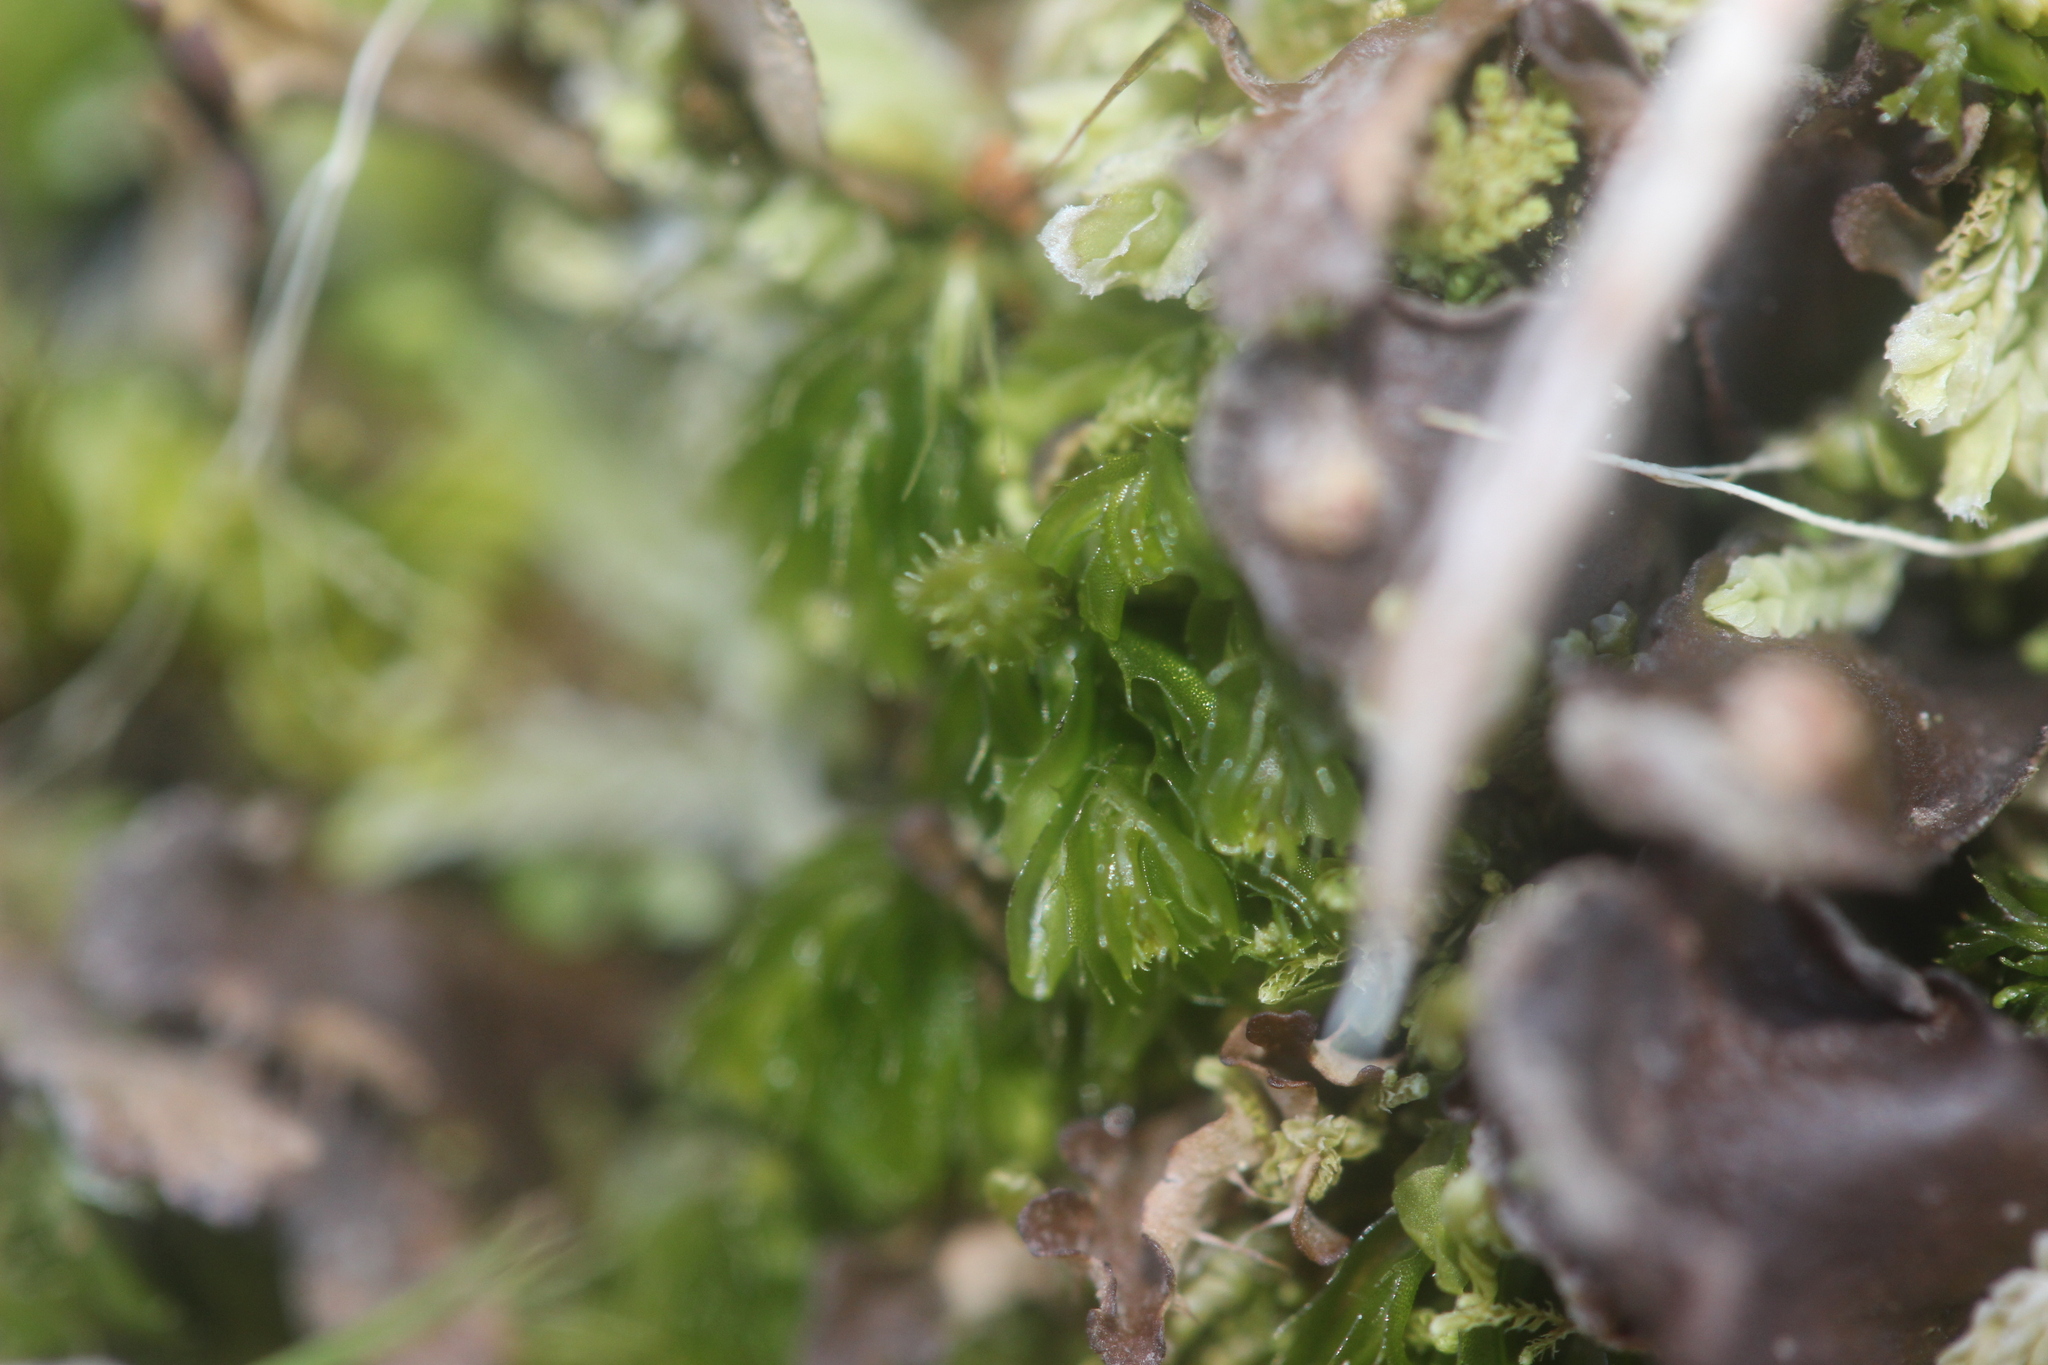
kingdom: Plantae
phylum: Tracheophyta
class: Polypodiopsida
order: Hymenophyllales
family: Hymenophyllaceae
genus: Hymenophyllum
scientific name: Hymenophyllum minimum
